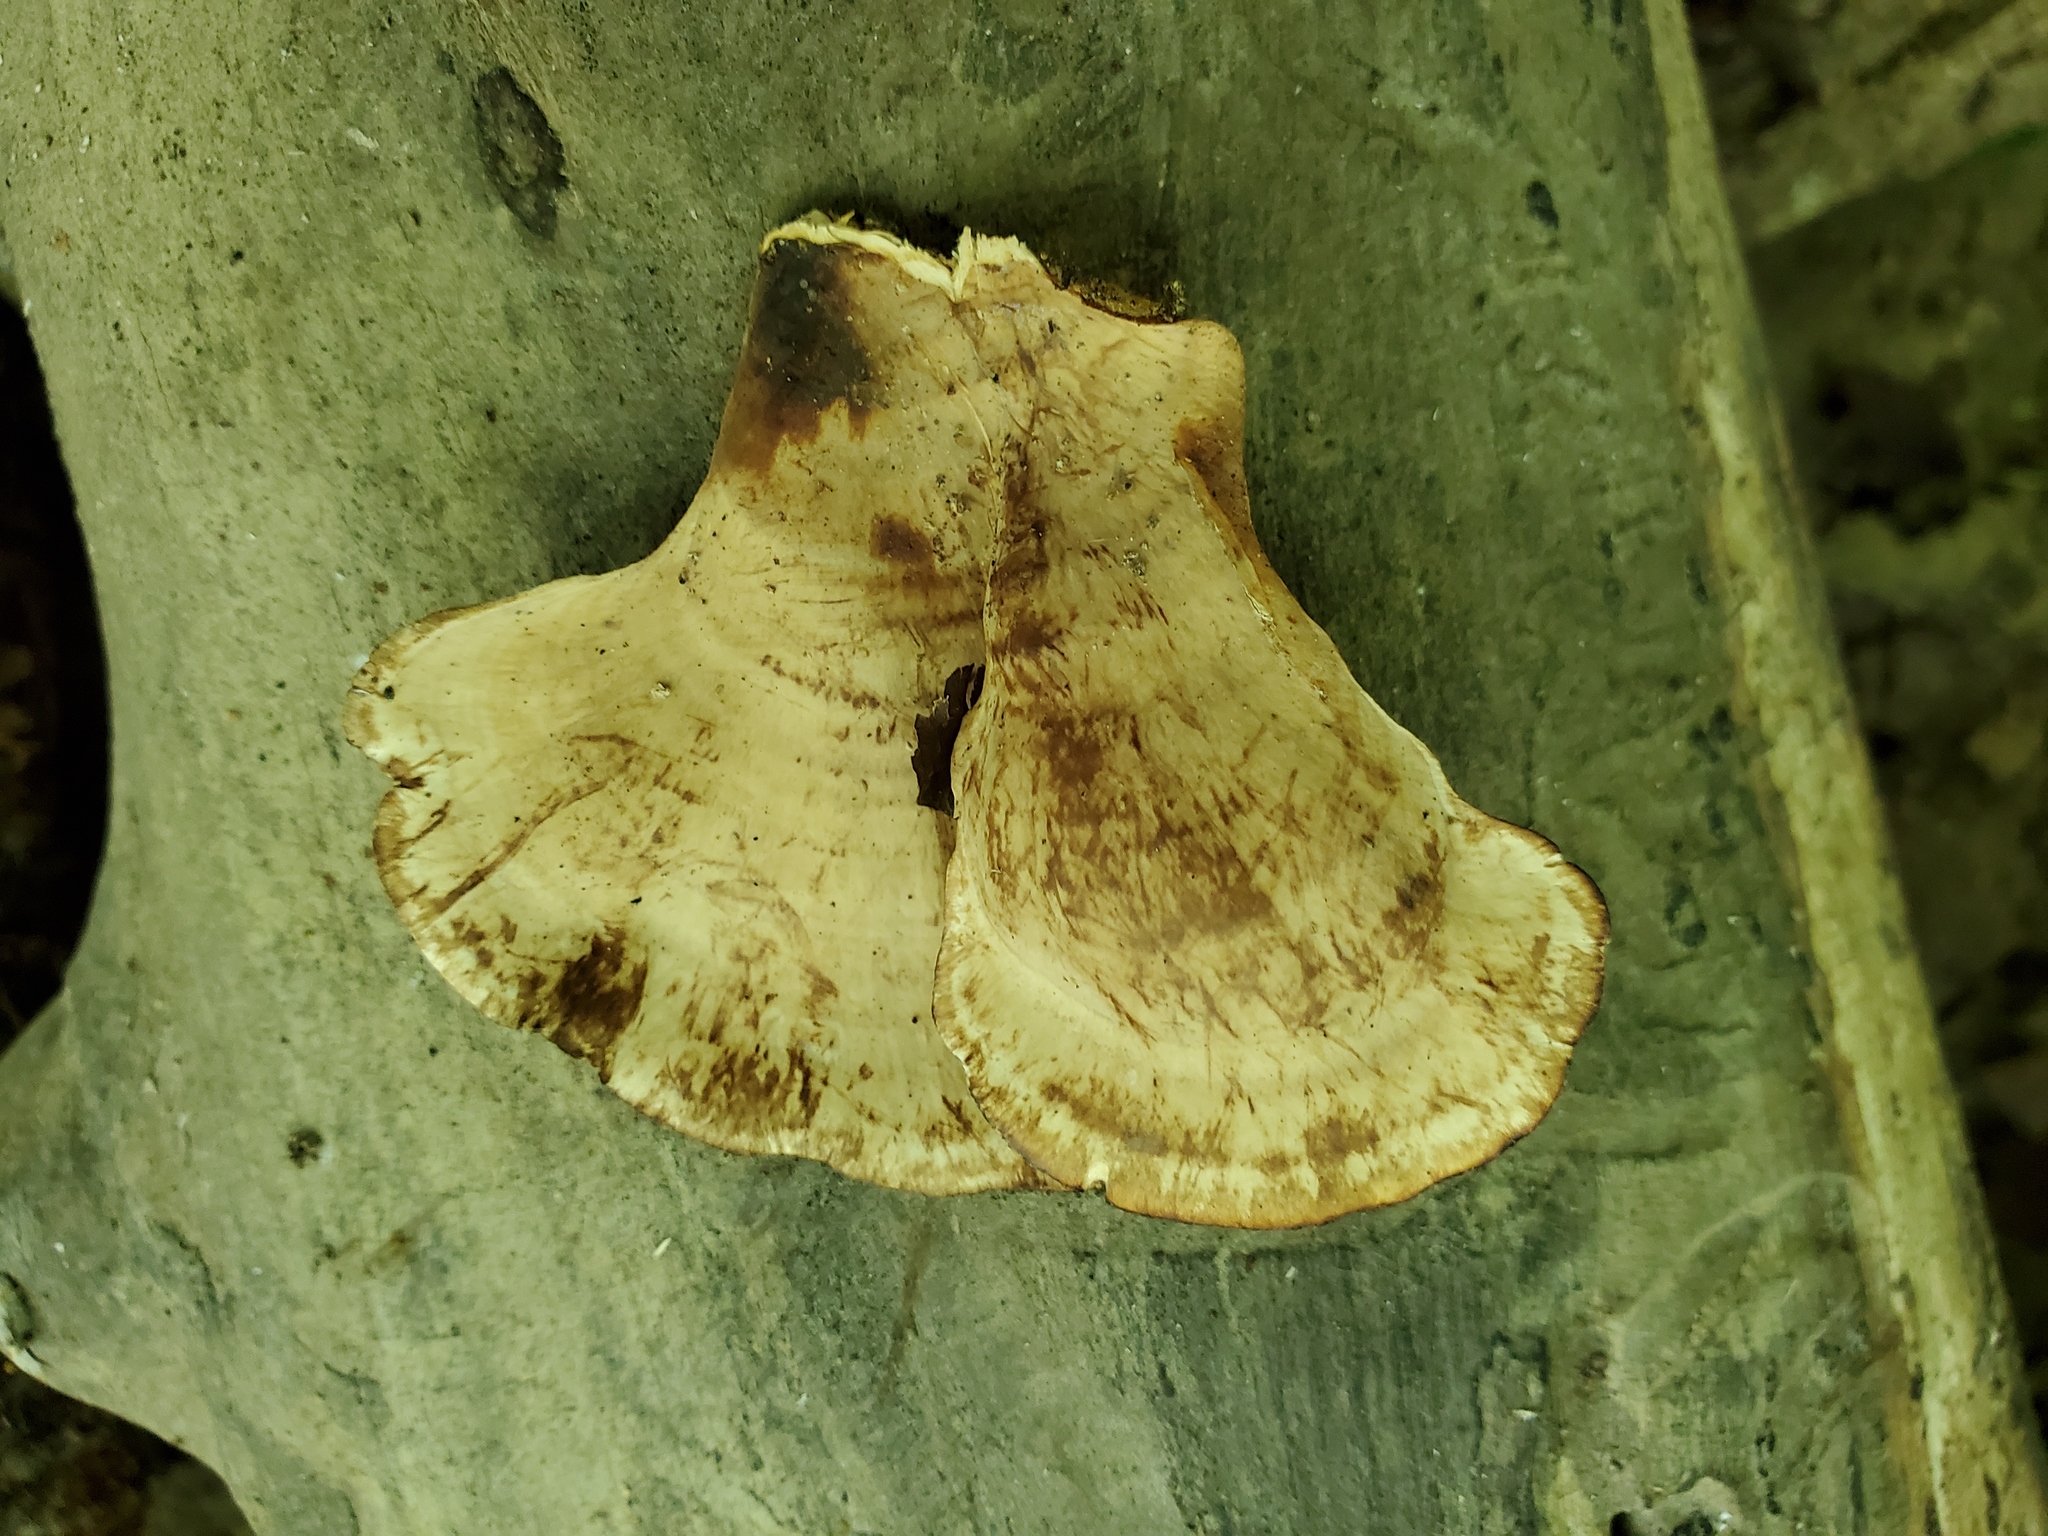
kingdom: Fungi
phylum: Basidiomycota
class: Agaricomycetes
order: Russulales
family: Stereaceae
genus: Stereum
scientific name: Stereum lobatum
